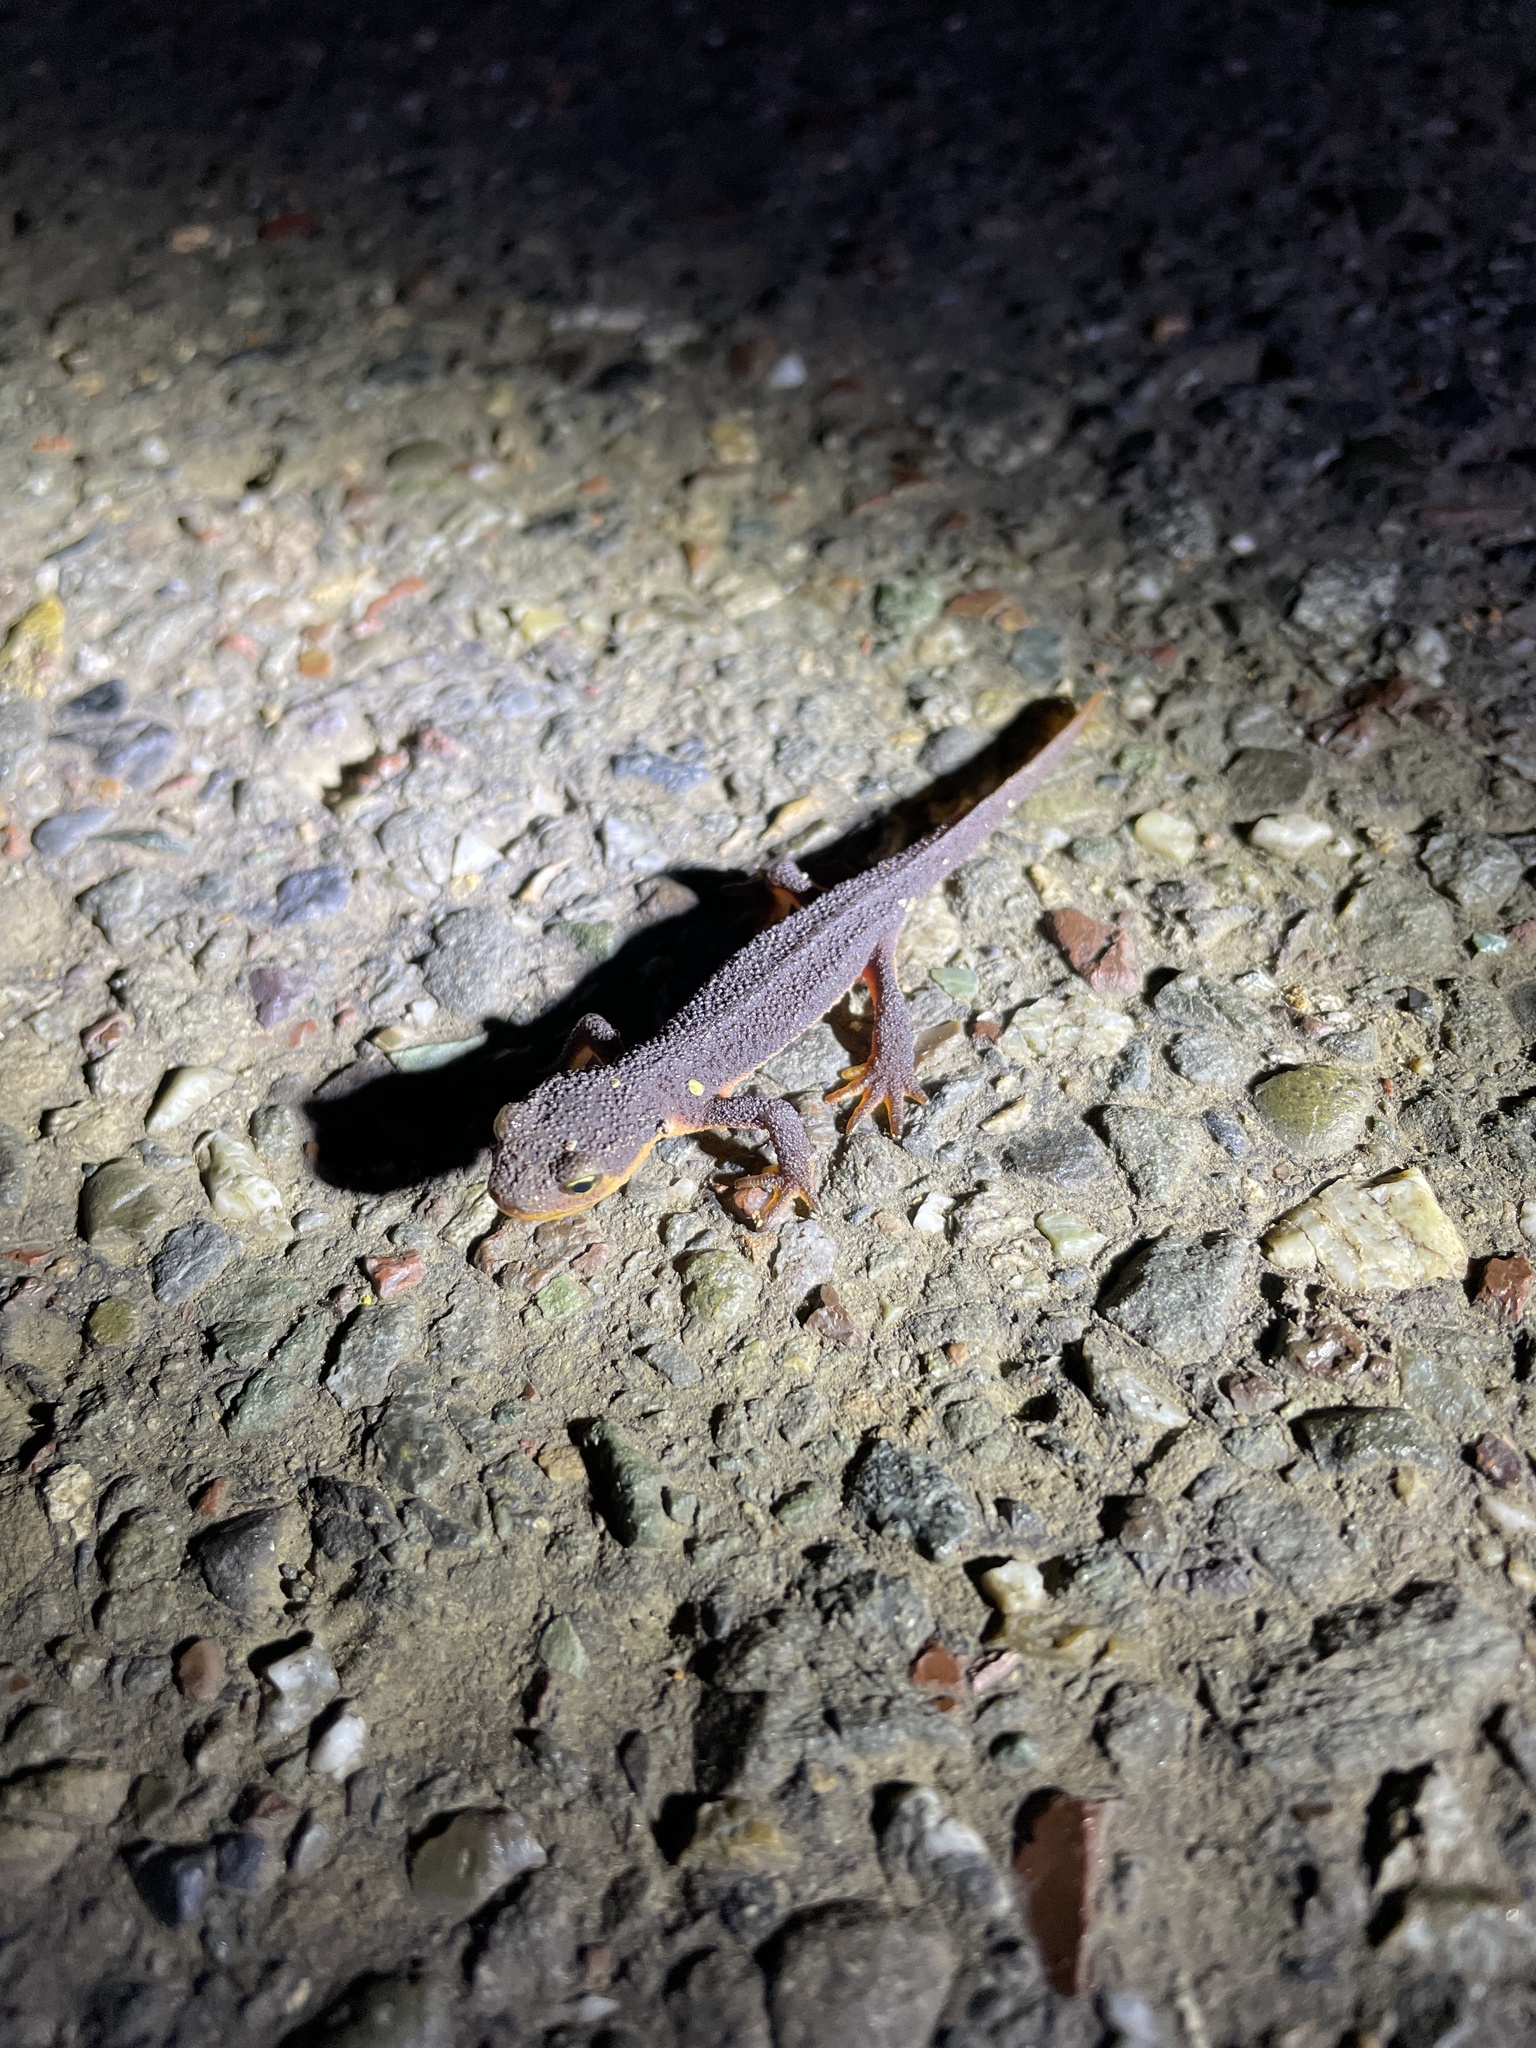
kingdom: Animalia
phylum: Chordata
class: Amphibia
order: Caudata
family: Salamandridae
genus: Taricha
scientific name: Taricha torosa
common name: California newt
